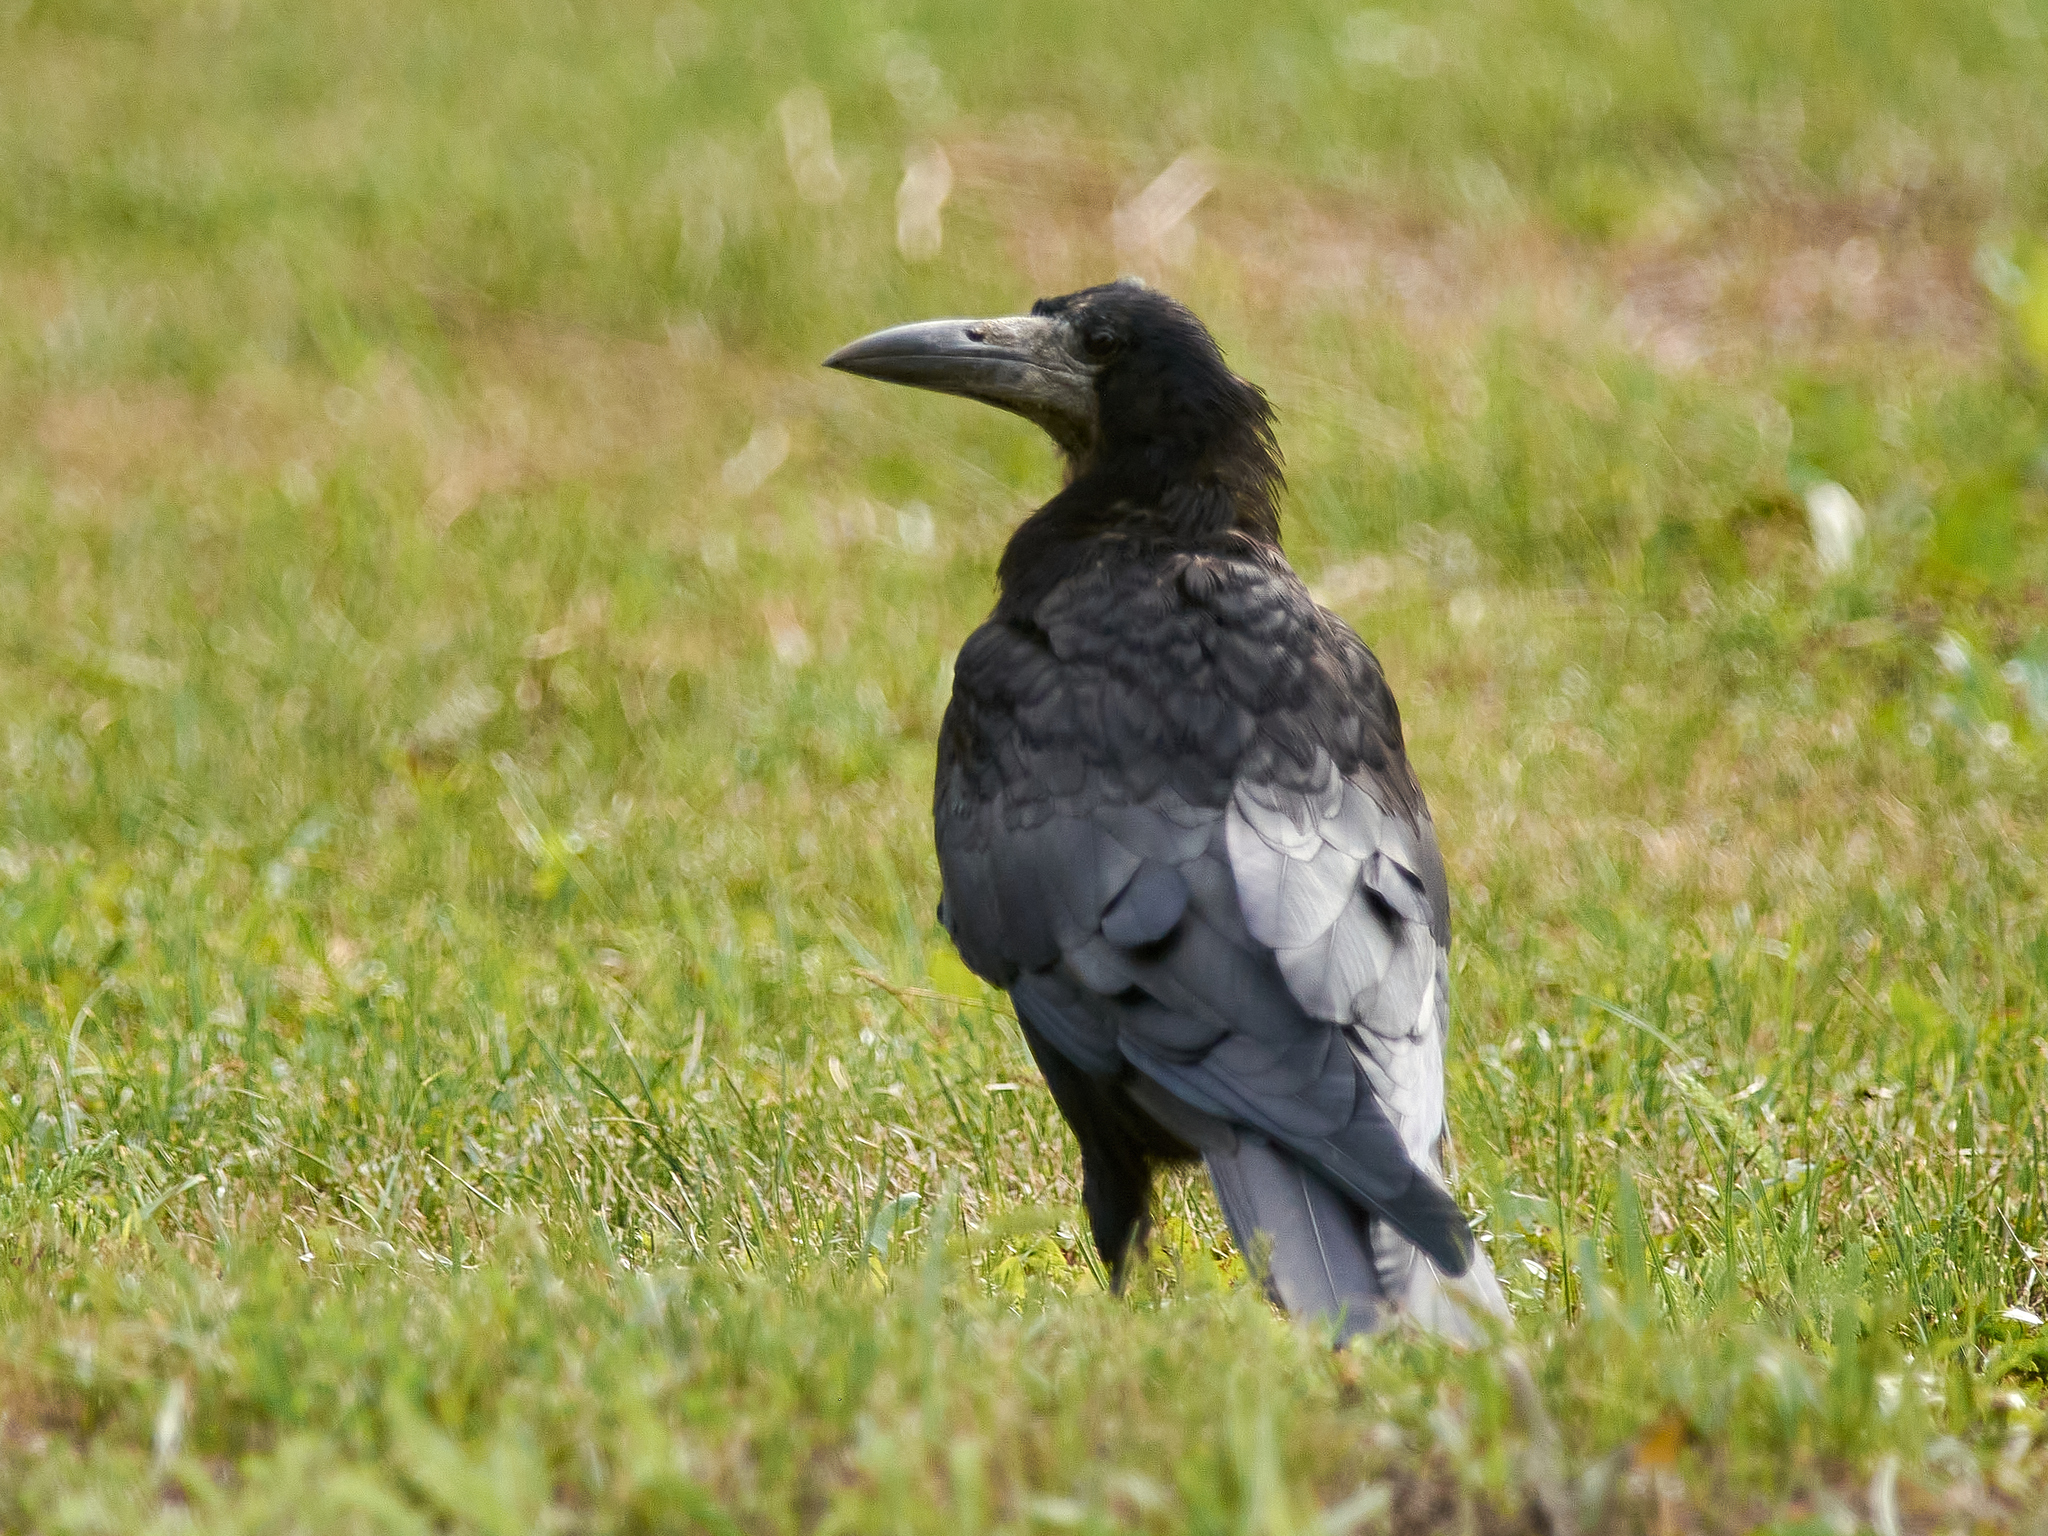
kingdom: Animalia
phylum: Chordata
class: Aves
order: Passeriformes
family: Corvidae
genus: Corvus
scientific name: Corvus frugilegus
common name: Rook
